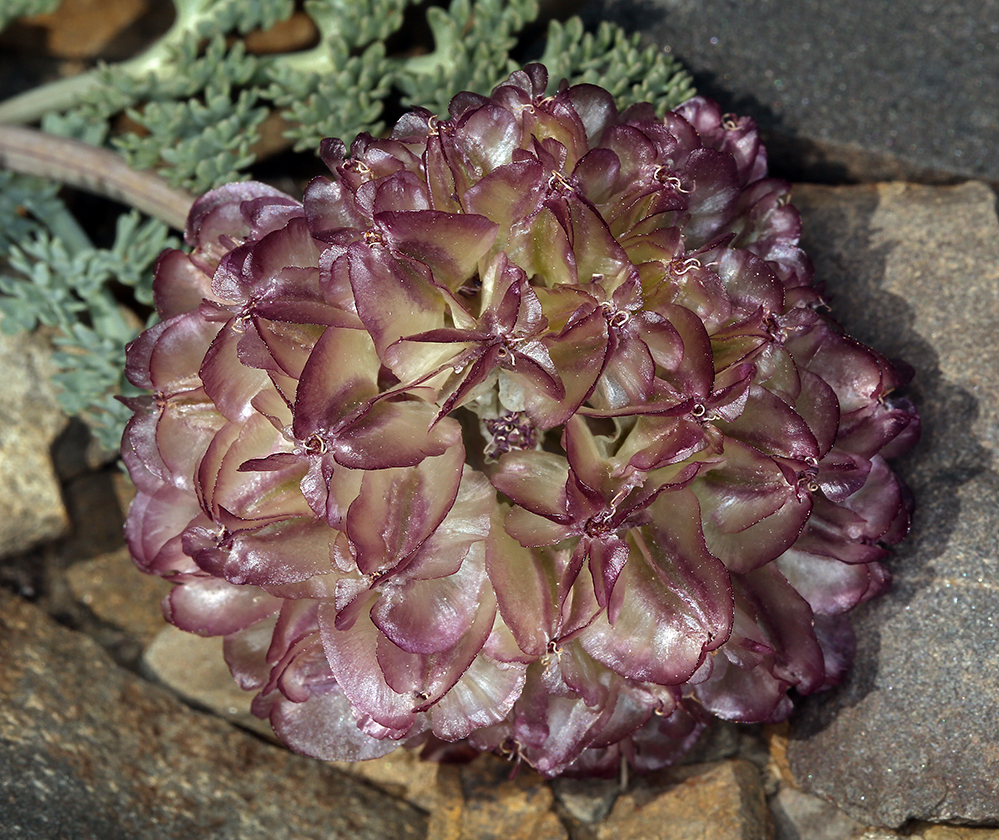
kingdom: Plantae
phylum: Tracheophyta
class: Magnoliopsida
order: Apiales
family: Apiaceae
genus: Vesper
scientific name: Vesper purpurascens
